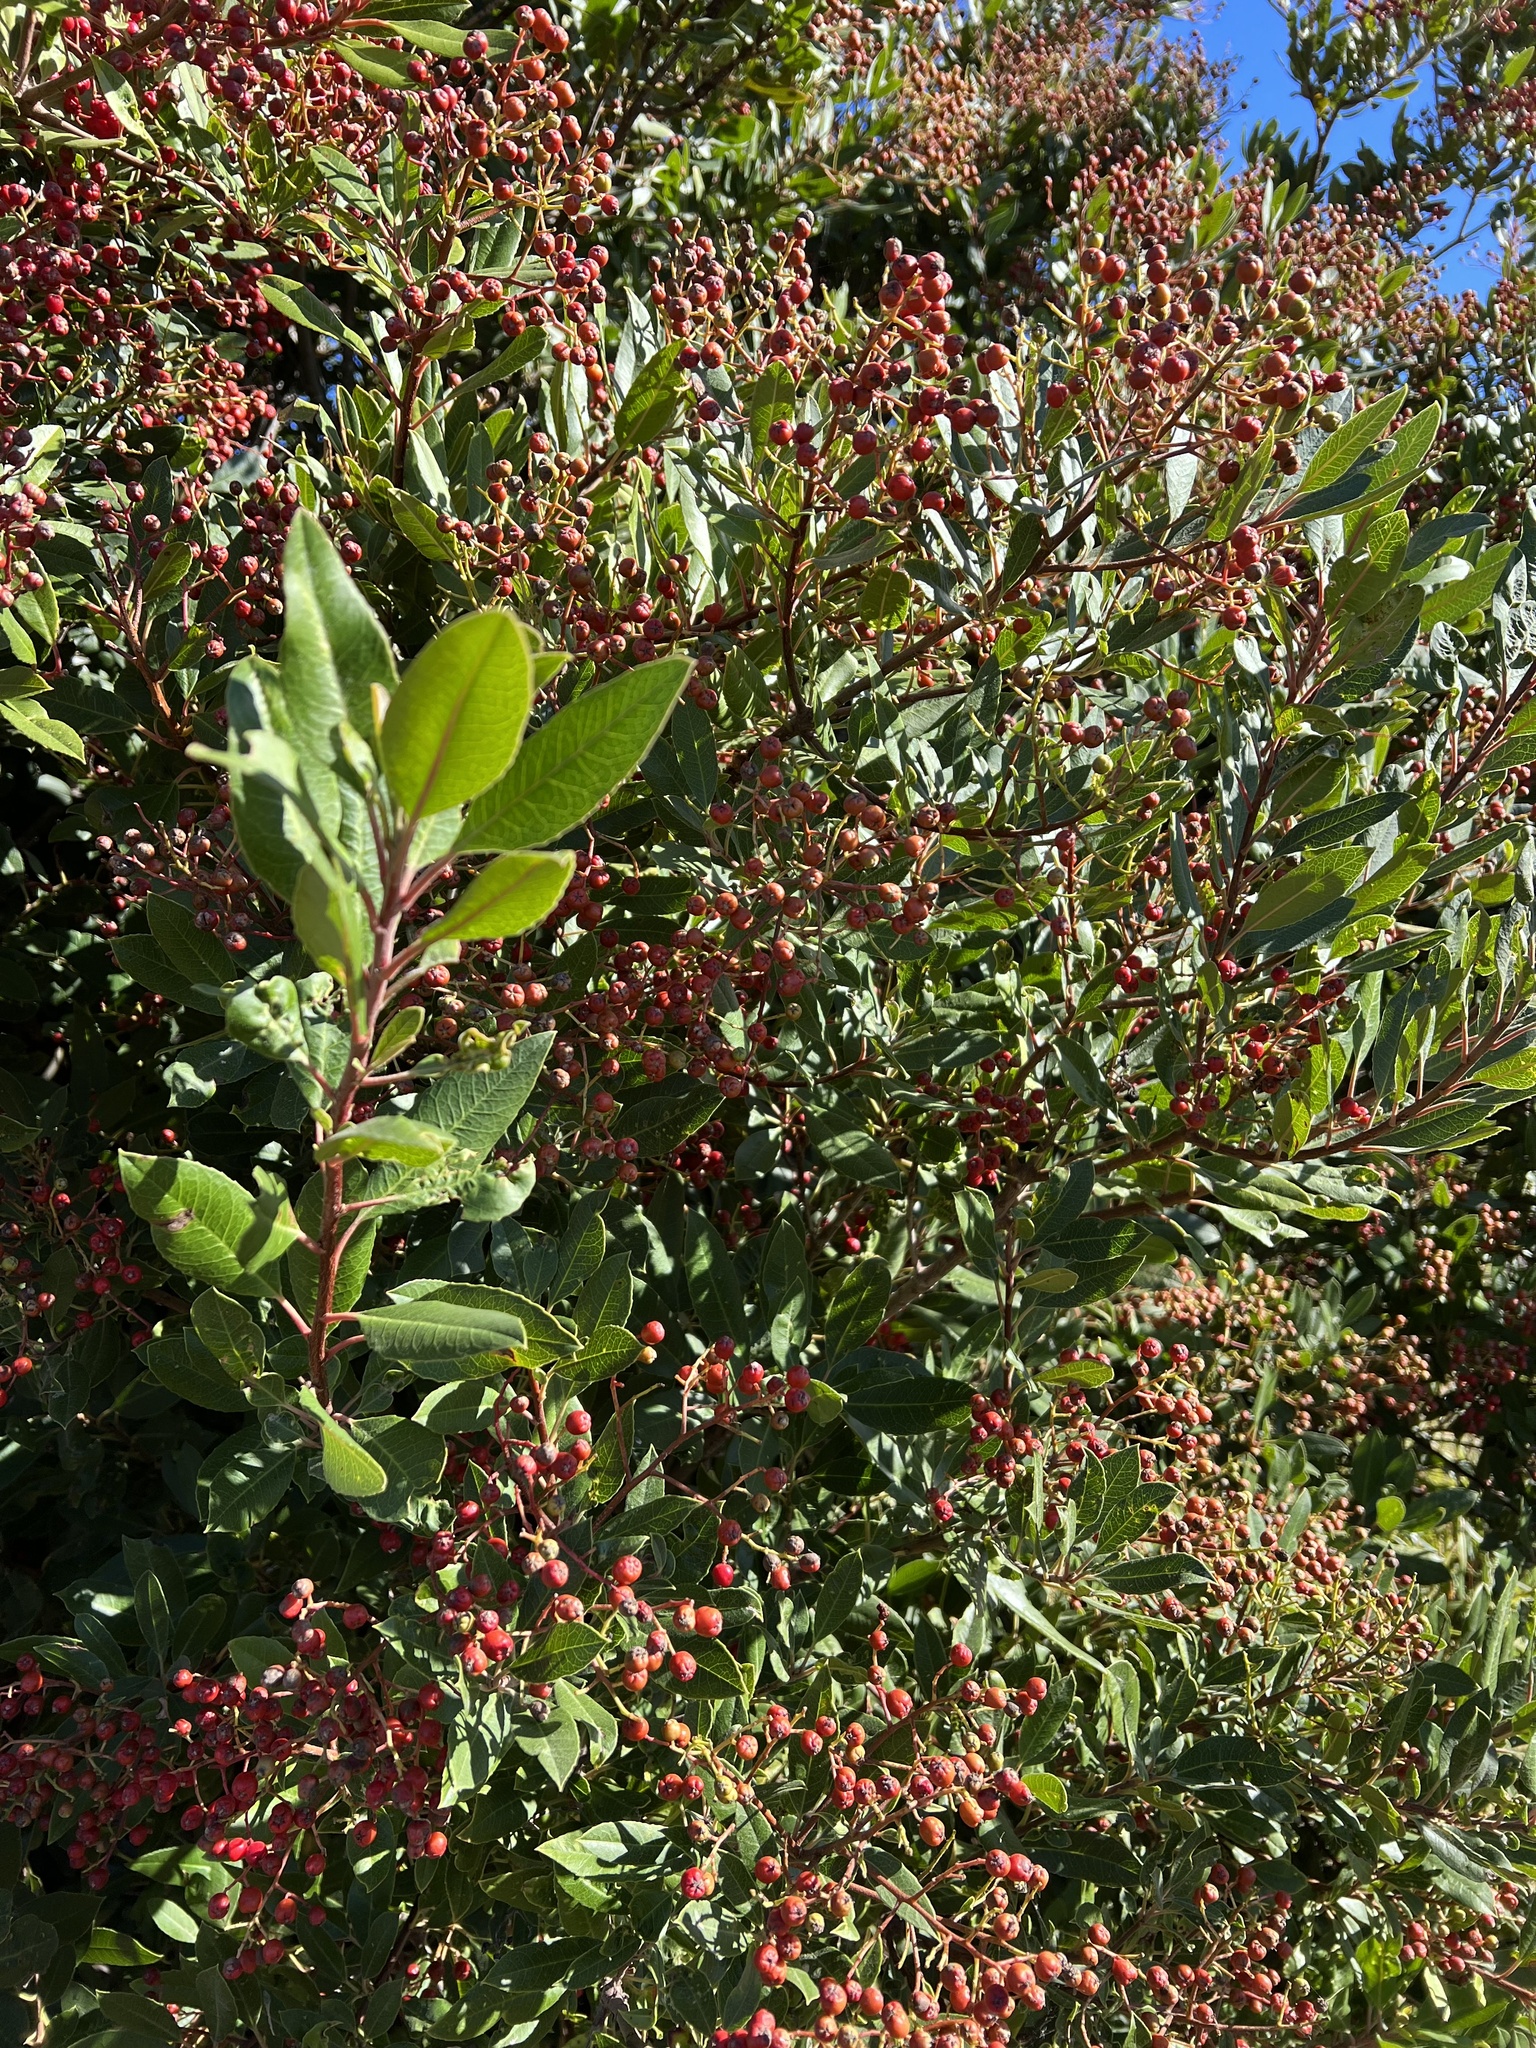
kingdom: Plantae
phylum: Tracheophyta
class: Magnoliopsida
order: Rosales
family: Rosaceae
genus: Heteromeles
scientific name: Heteromeles arbutifolia
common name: California-holly
